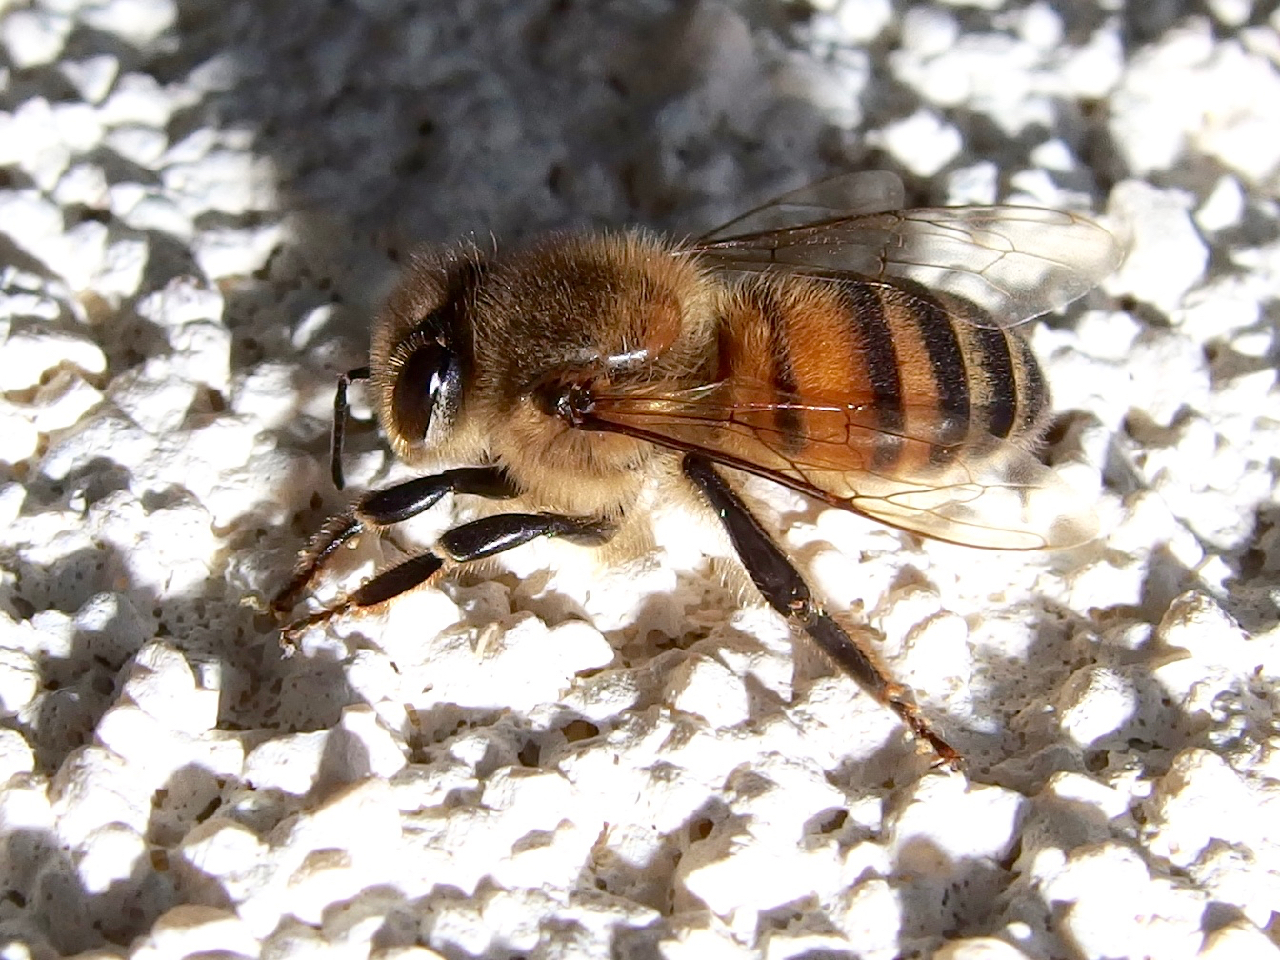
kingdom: Animalia
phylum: Arthropoda
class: Insecta
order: Hymenoptera
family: Apidae
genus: Apis
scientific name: Apis mellifera
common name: Honey bee
